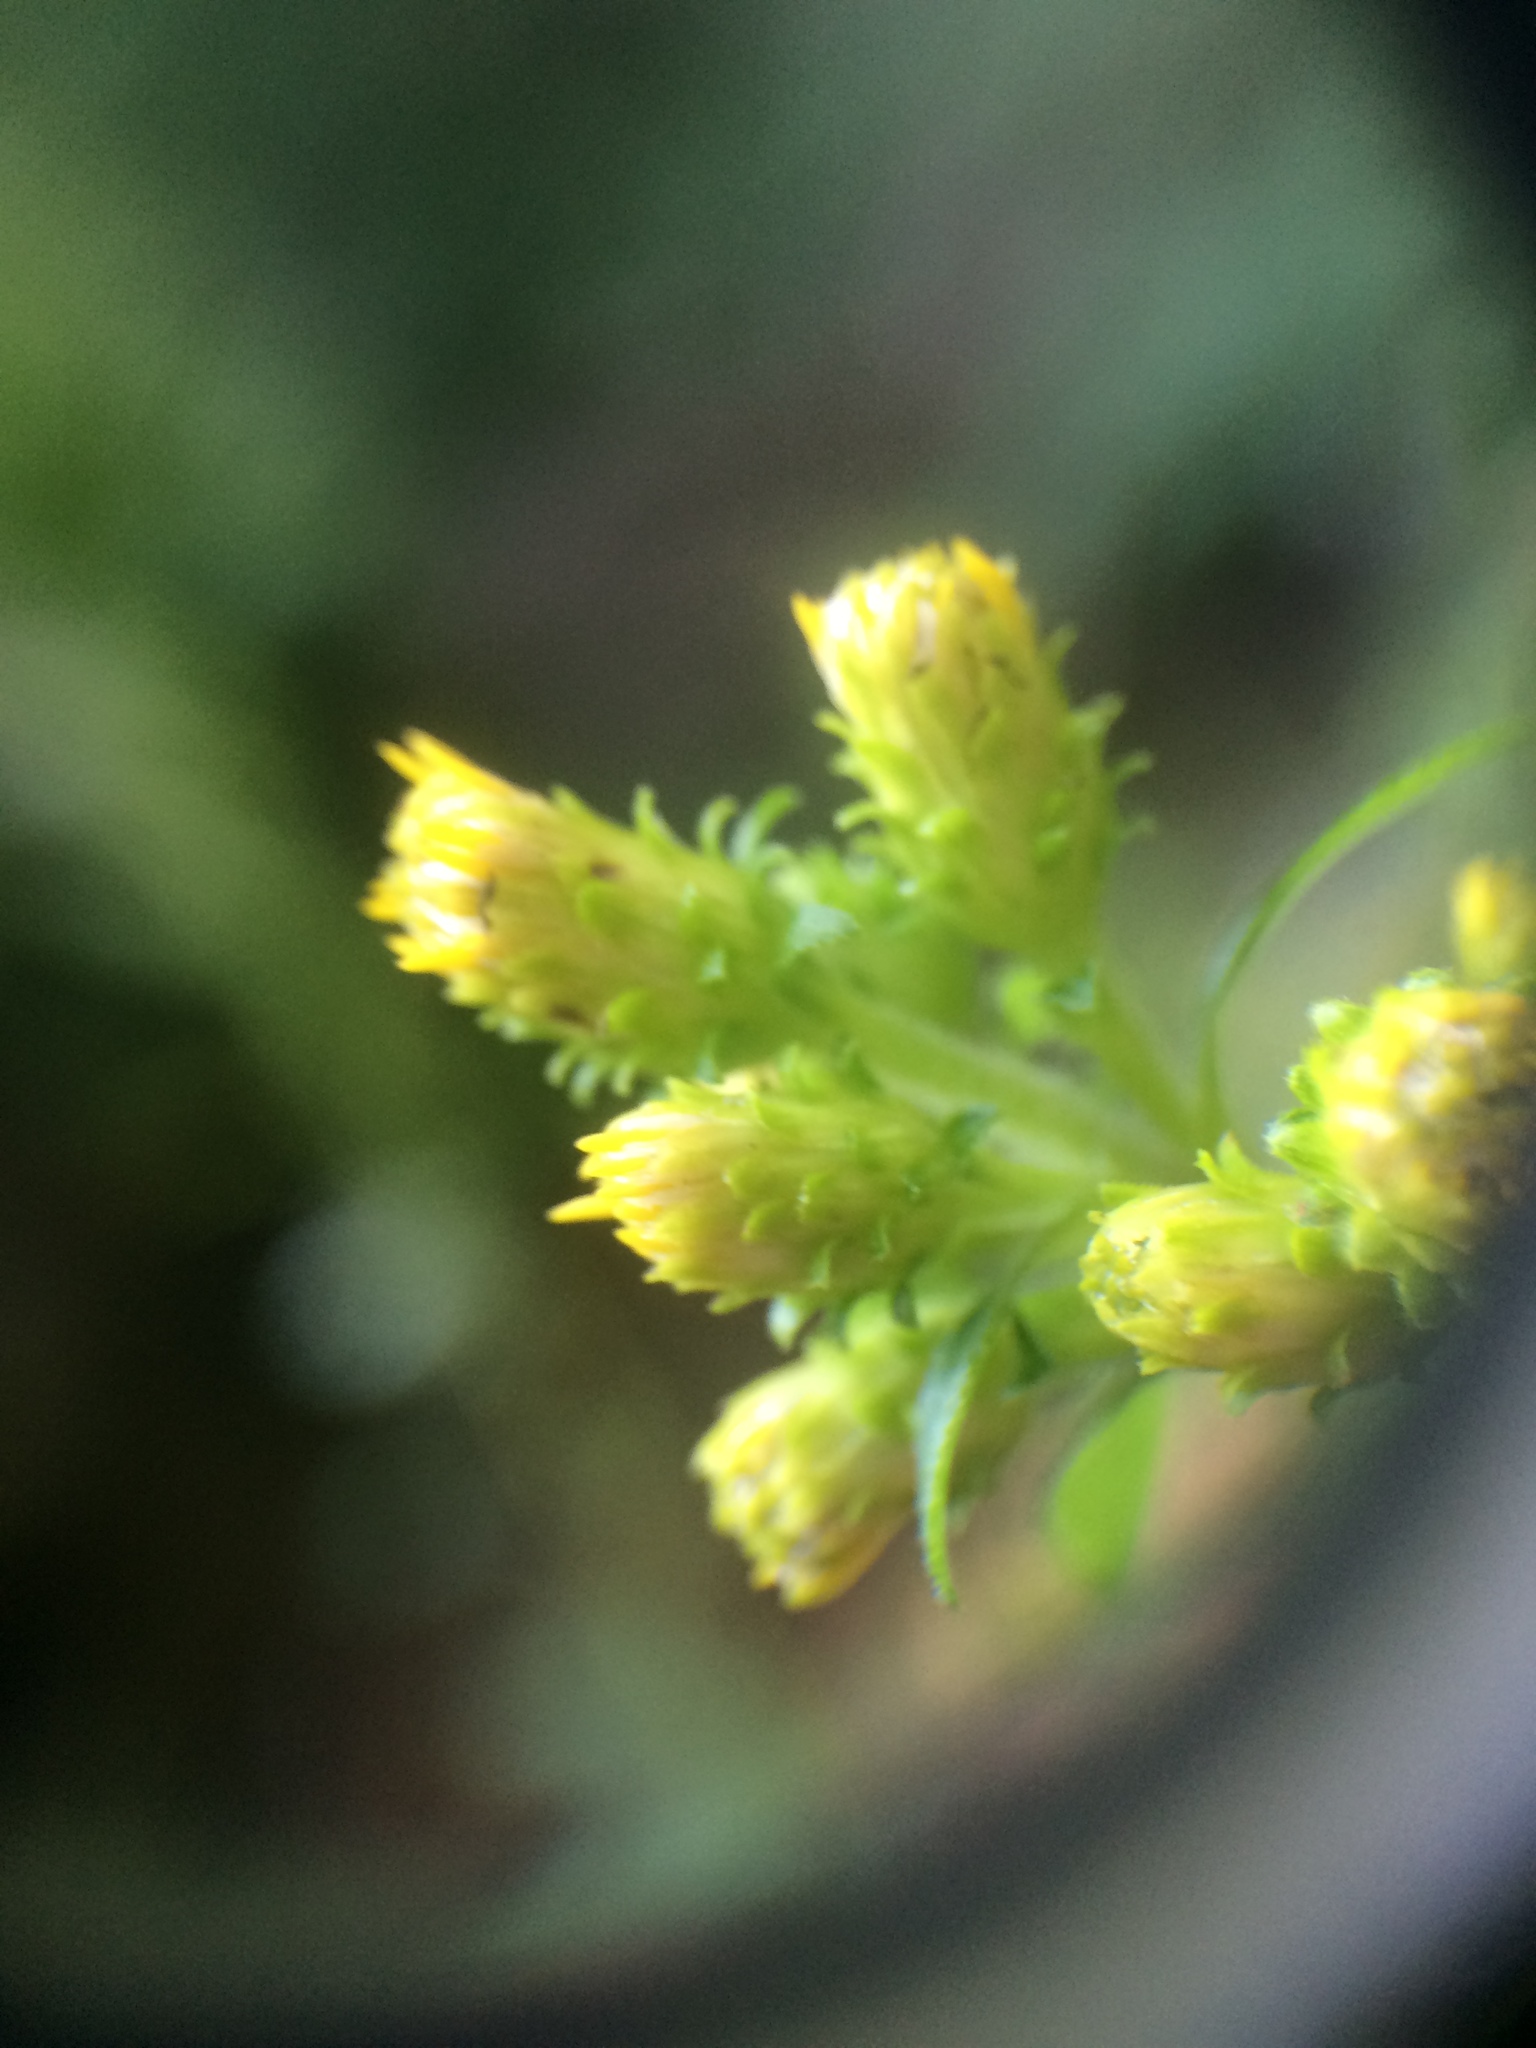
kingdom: Plantae
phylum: Tracheophyta
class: Magnoliopsida
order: Asterales
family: Asteraceae
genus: Solidago
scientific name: Solidago squarrosa
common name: Stout goldenrod
